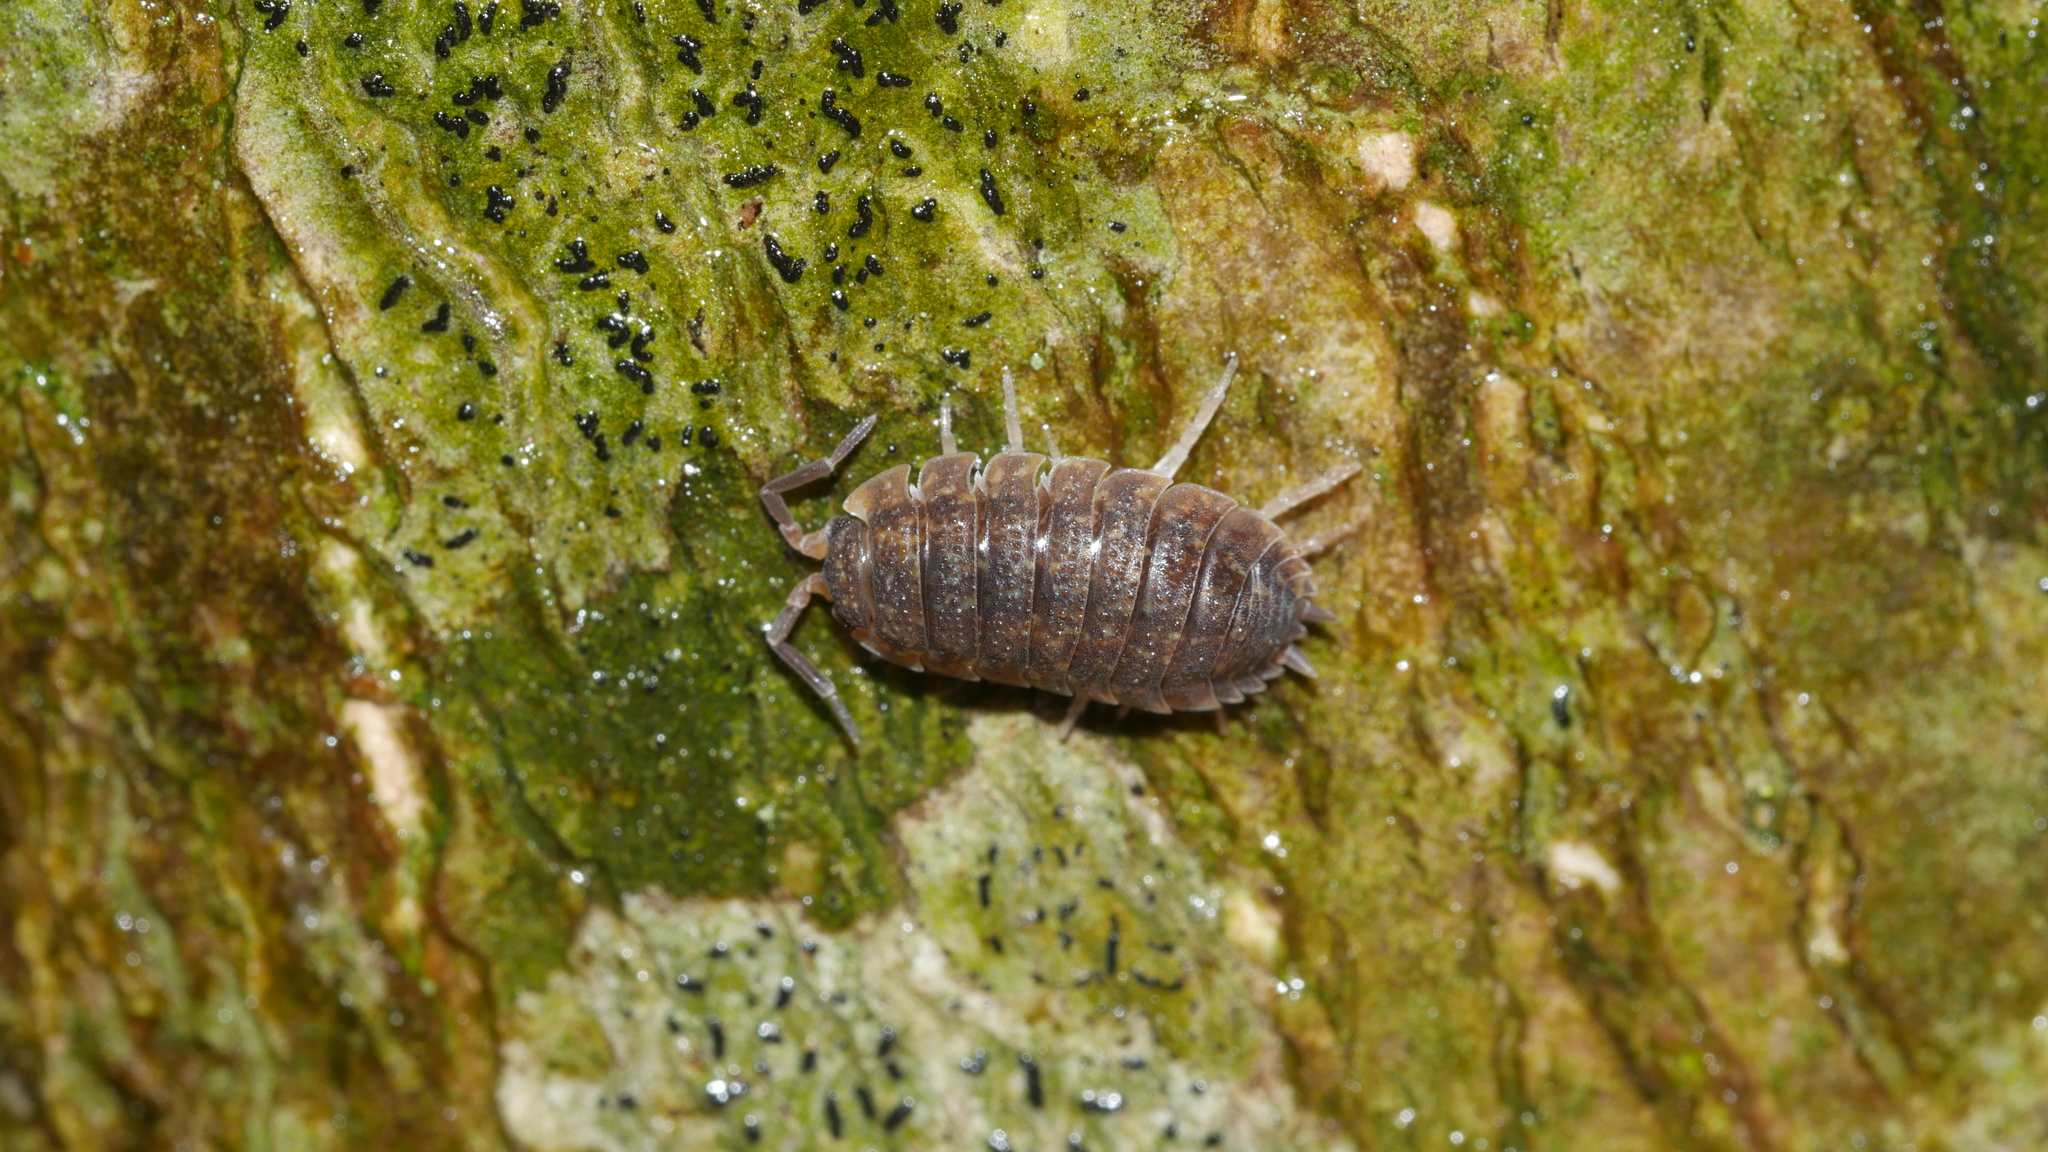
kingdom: Animalia
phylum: Arthropoda
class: Malacostraca
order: Isopoda
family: Porcellionidae
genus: Porcellio
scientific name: Porcellio scaber
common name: Common rough woodlouse
